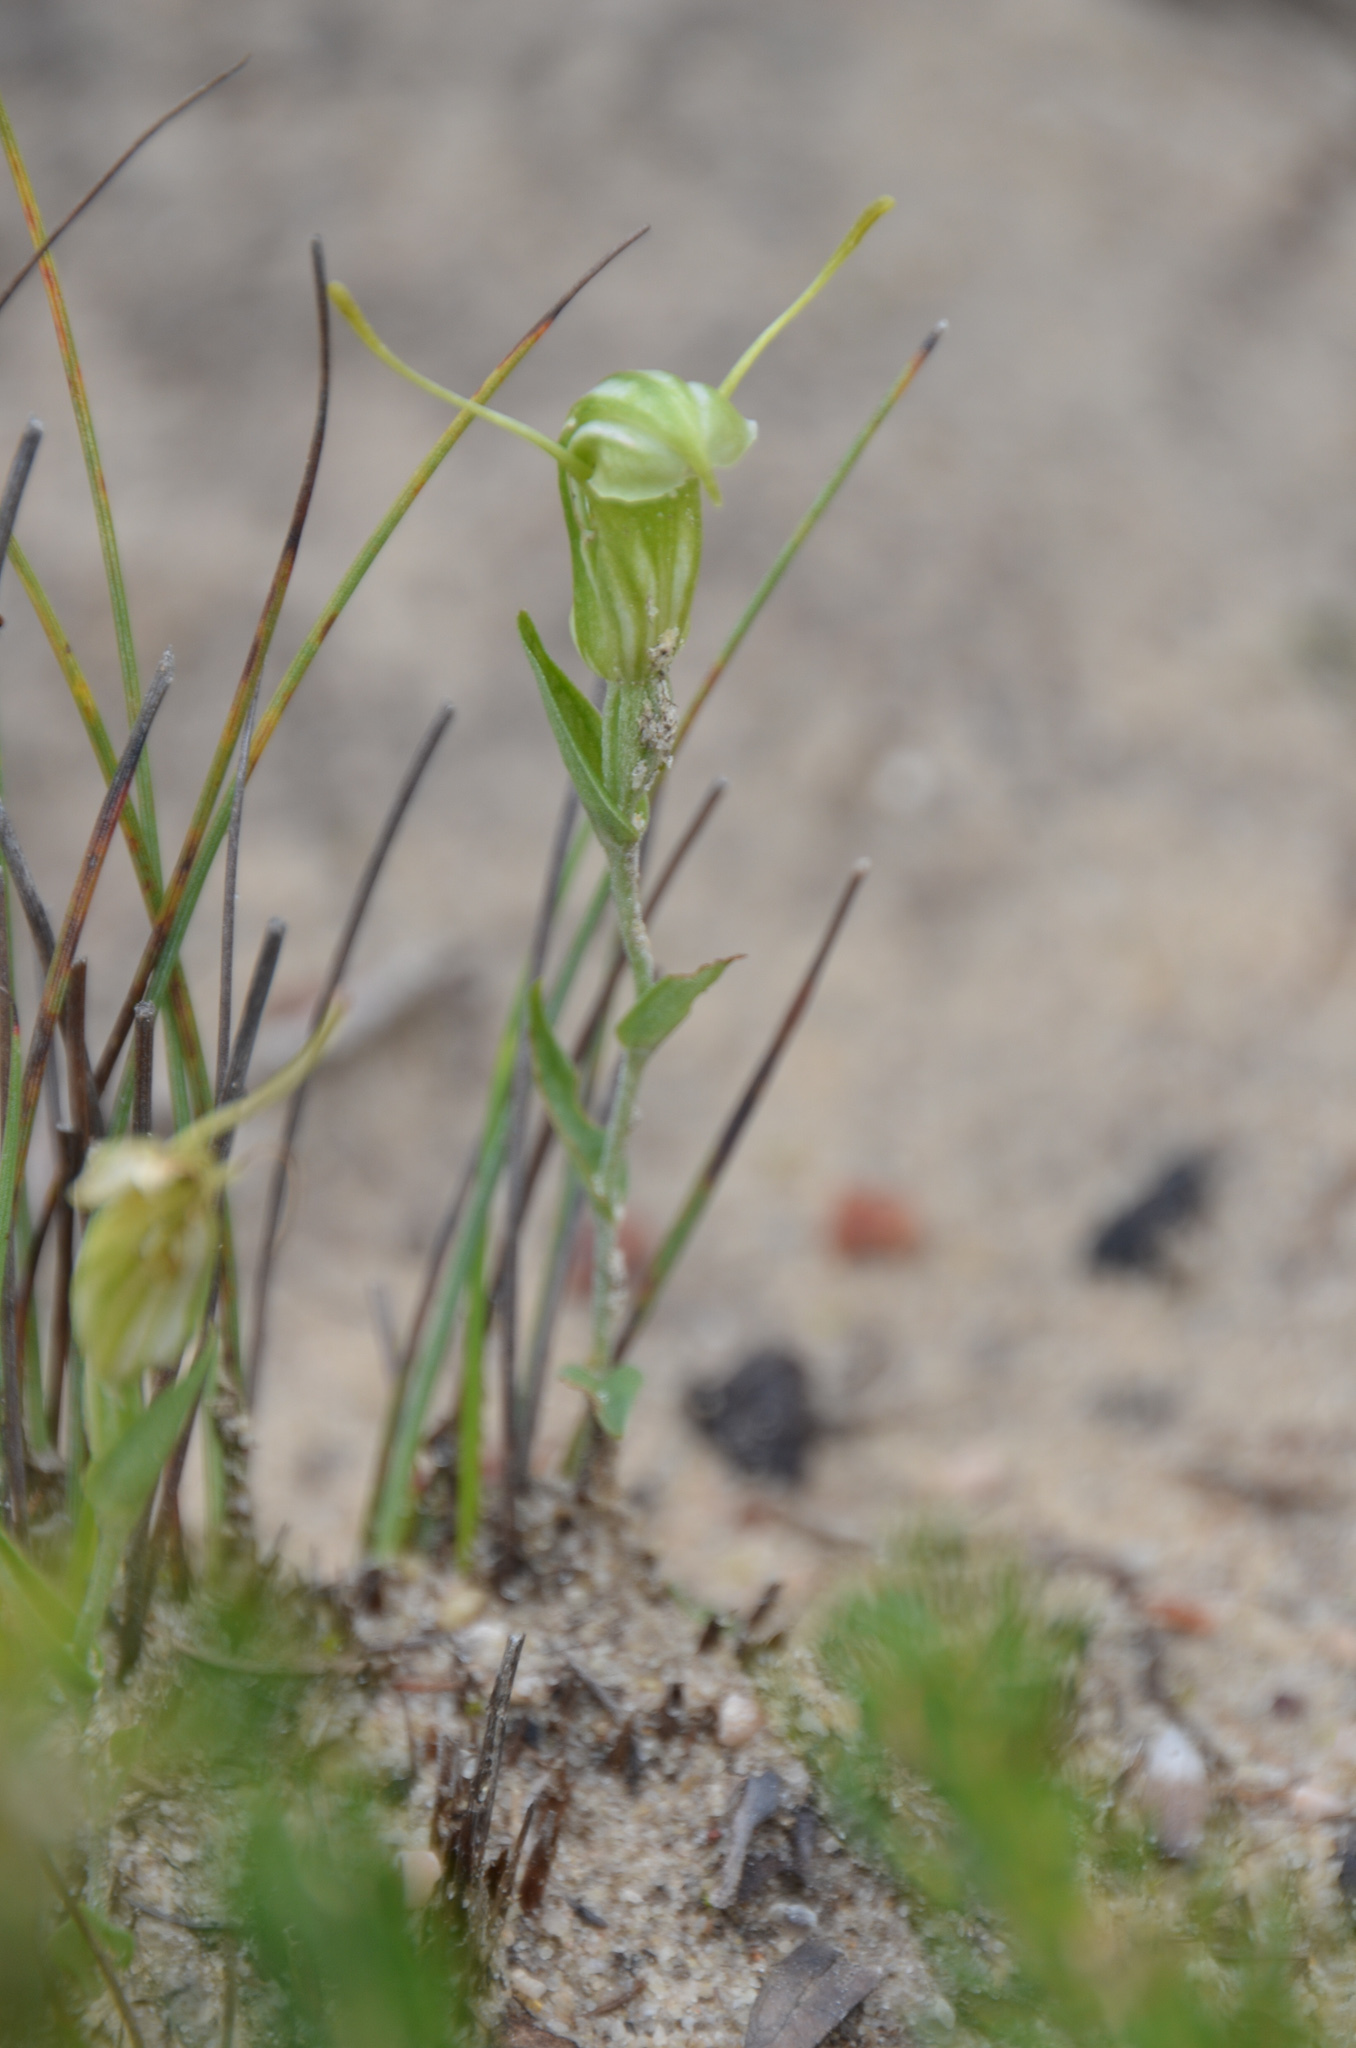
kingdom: Plantae
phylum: Tracheophyta
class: Liliopsida
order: Asparagales
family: Orchidaceae
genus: Pterostylis
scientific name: Pterostylis dilatata
